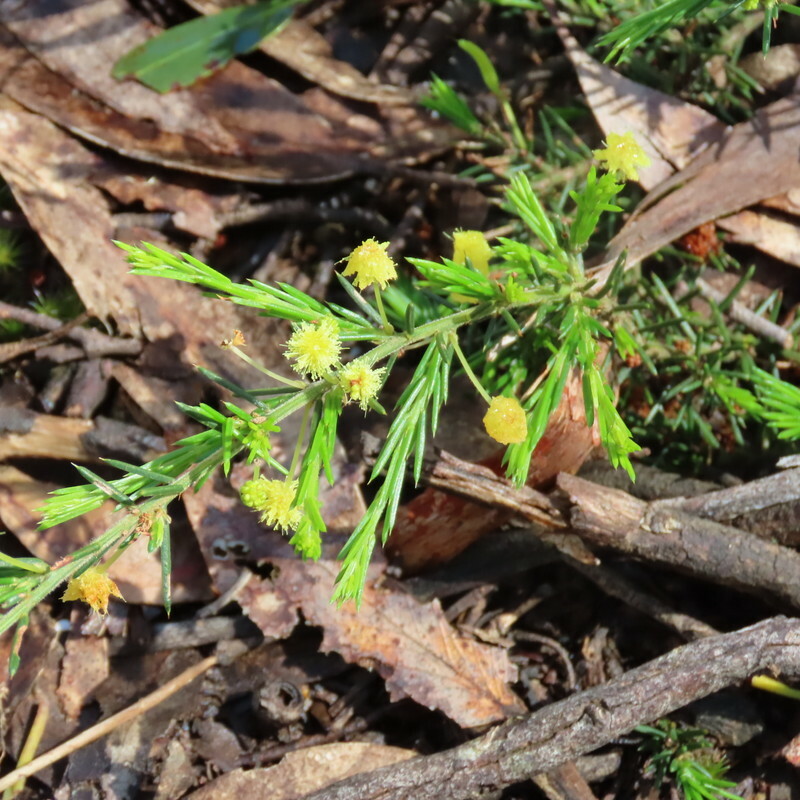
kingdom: Plantae
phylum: Tracheophyta
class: Magnoliopsida
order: Fabales
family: Fabaceae
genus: Acacia
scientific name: Acacia aculeatissima
